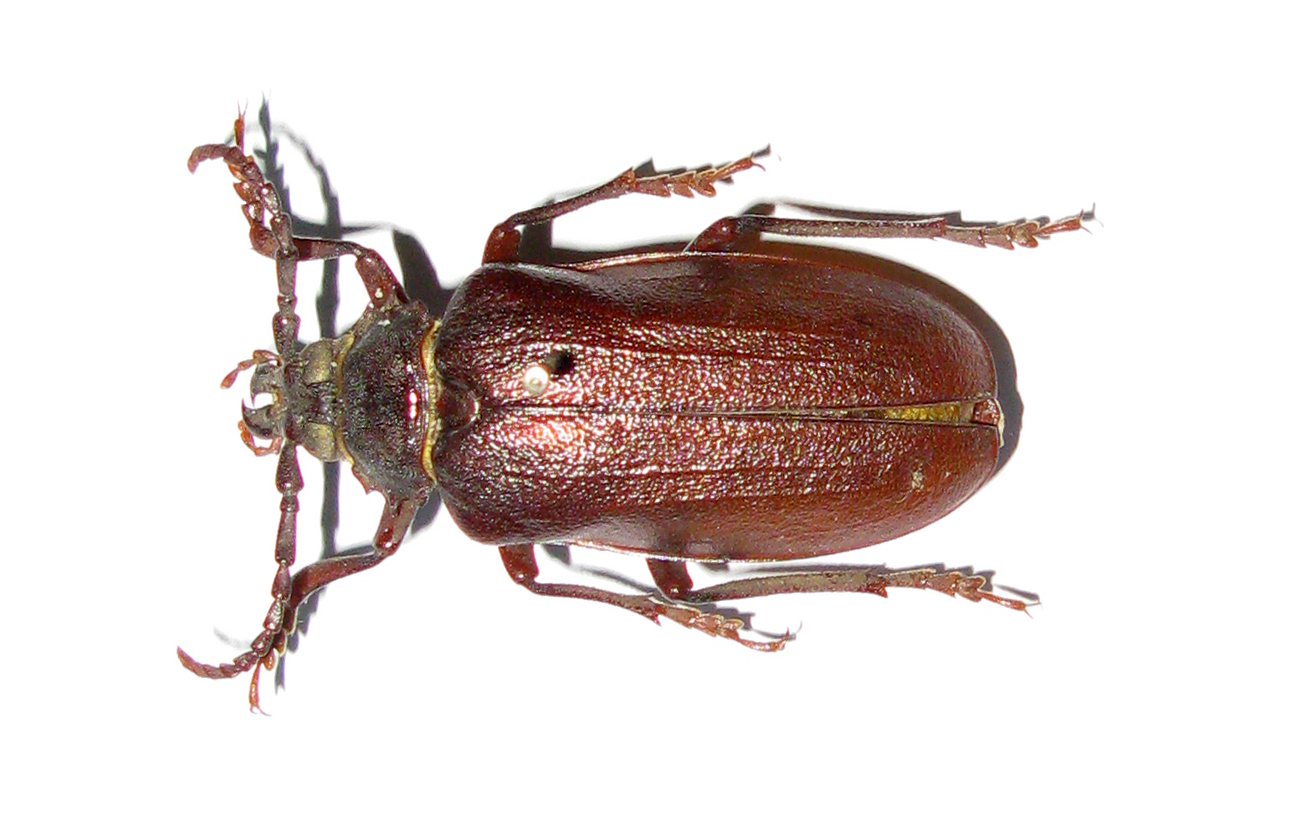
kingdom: Animalia
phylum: Arthropoda
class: Insecta
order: Coleoptera
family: Cerambycidae
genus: Prionus
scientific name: Prionus coriarius
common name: Tanner beetle
